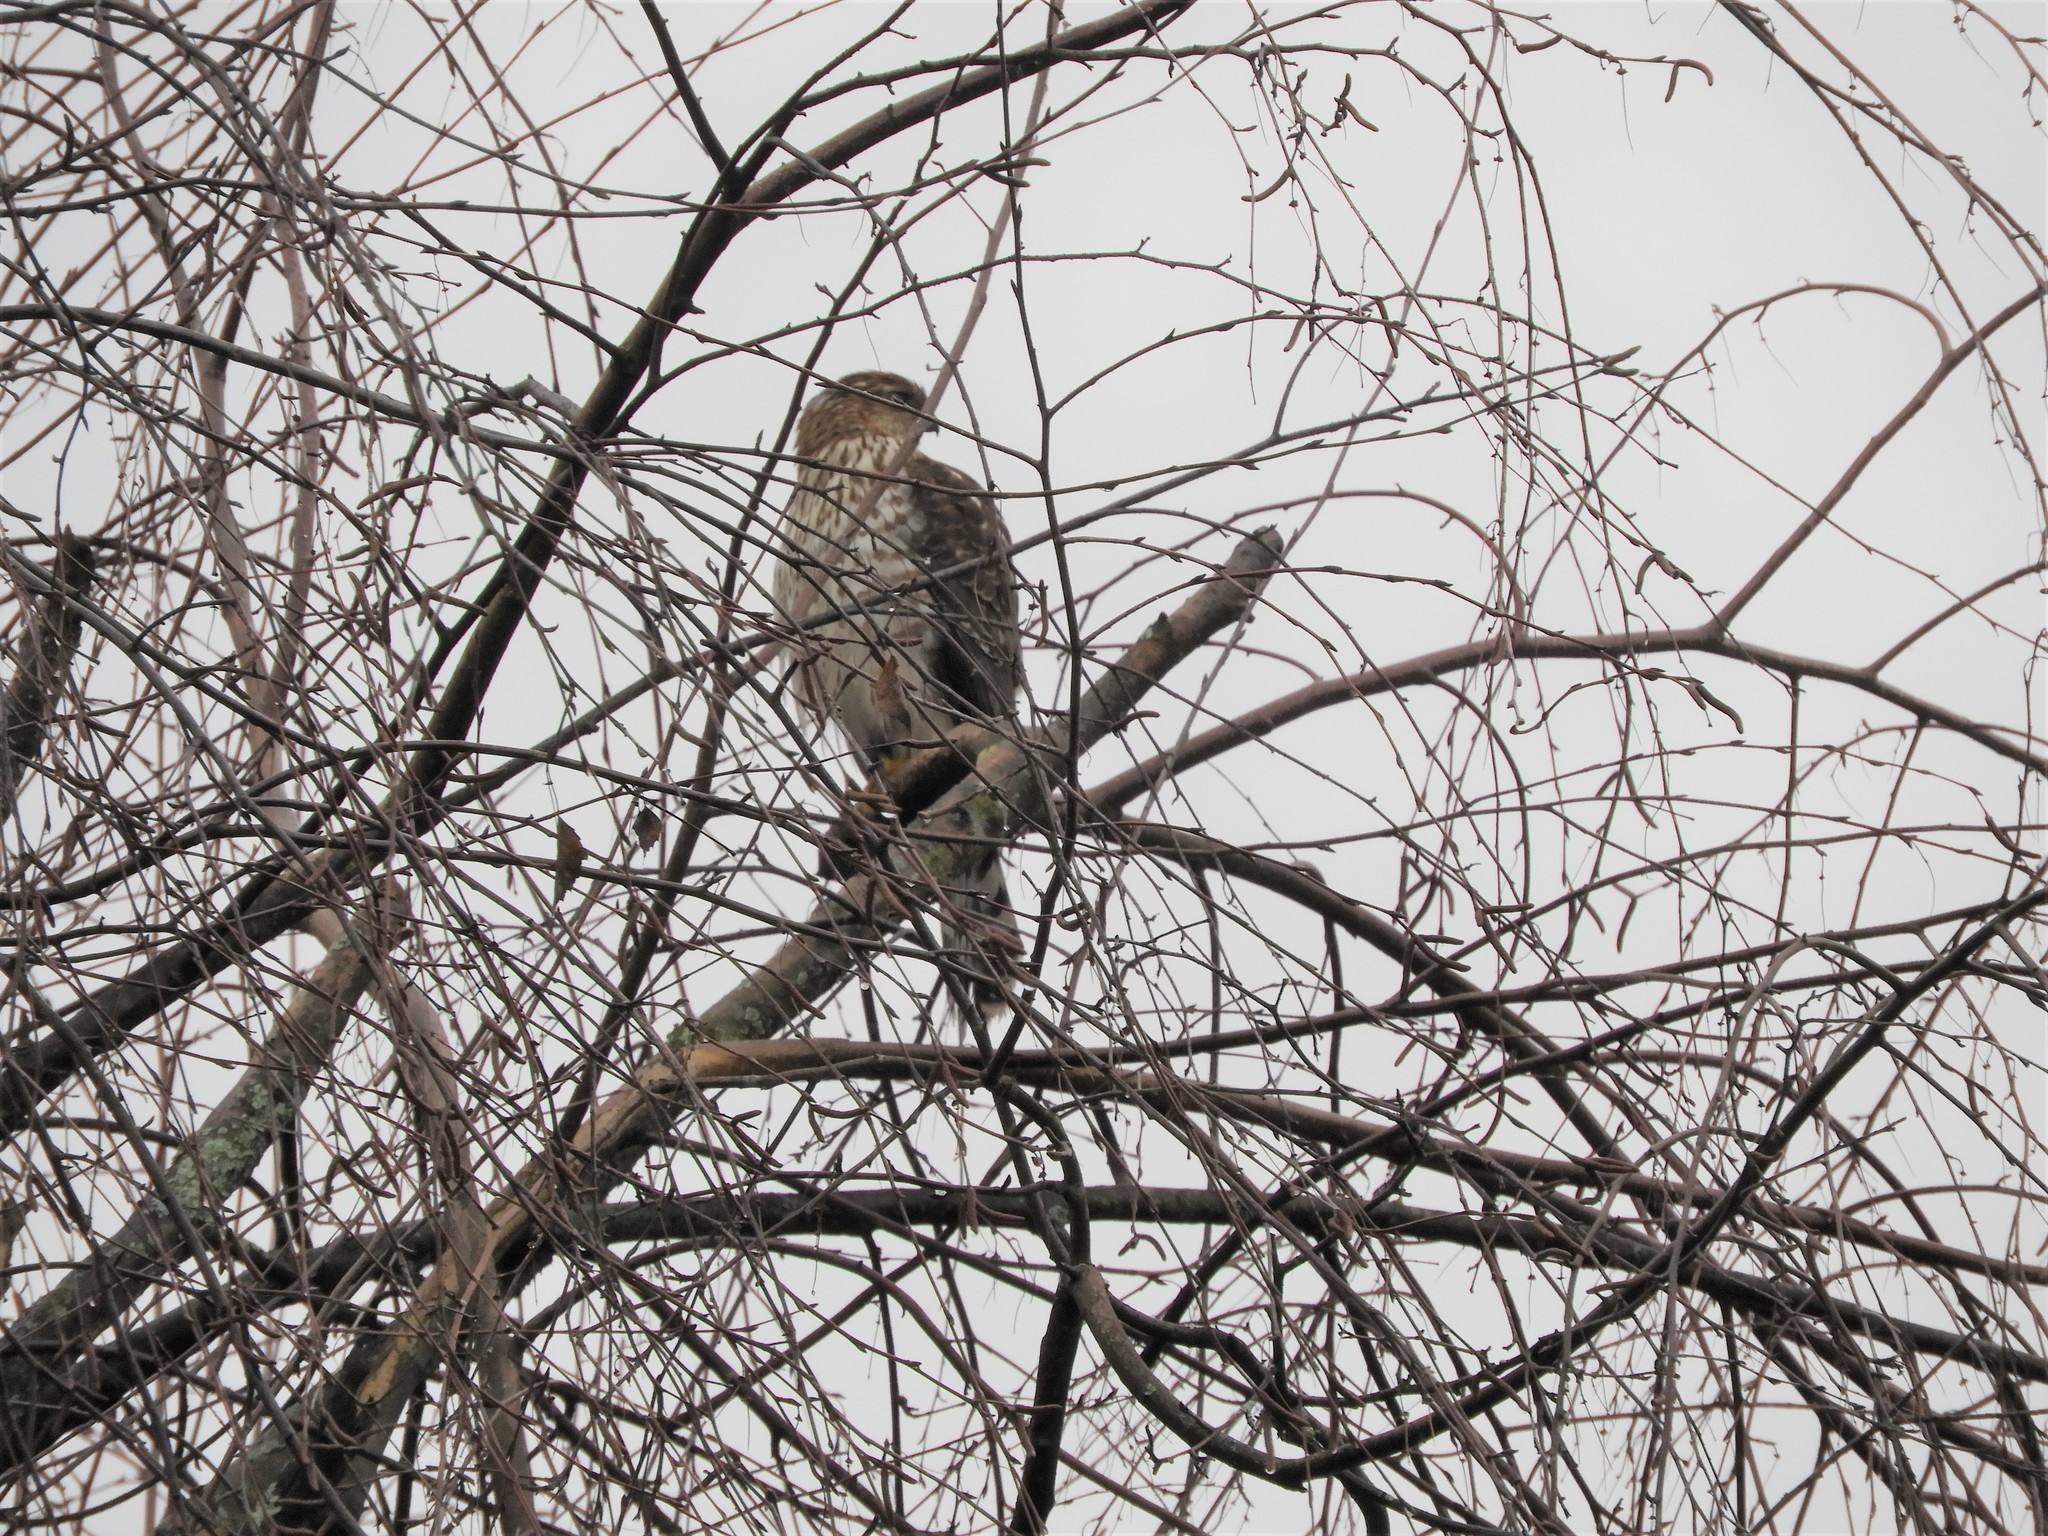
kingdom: Animalia
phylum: Chordata
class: Aves
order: Accipitriformes
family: Accipitridae
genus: Accipiter
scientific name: Accipiter cooperii
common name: Cooper's hawk
